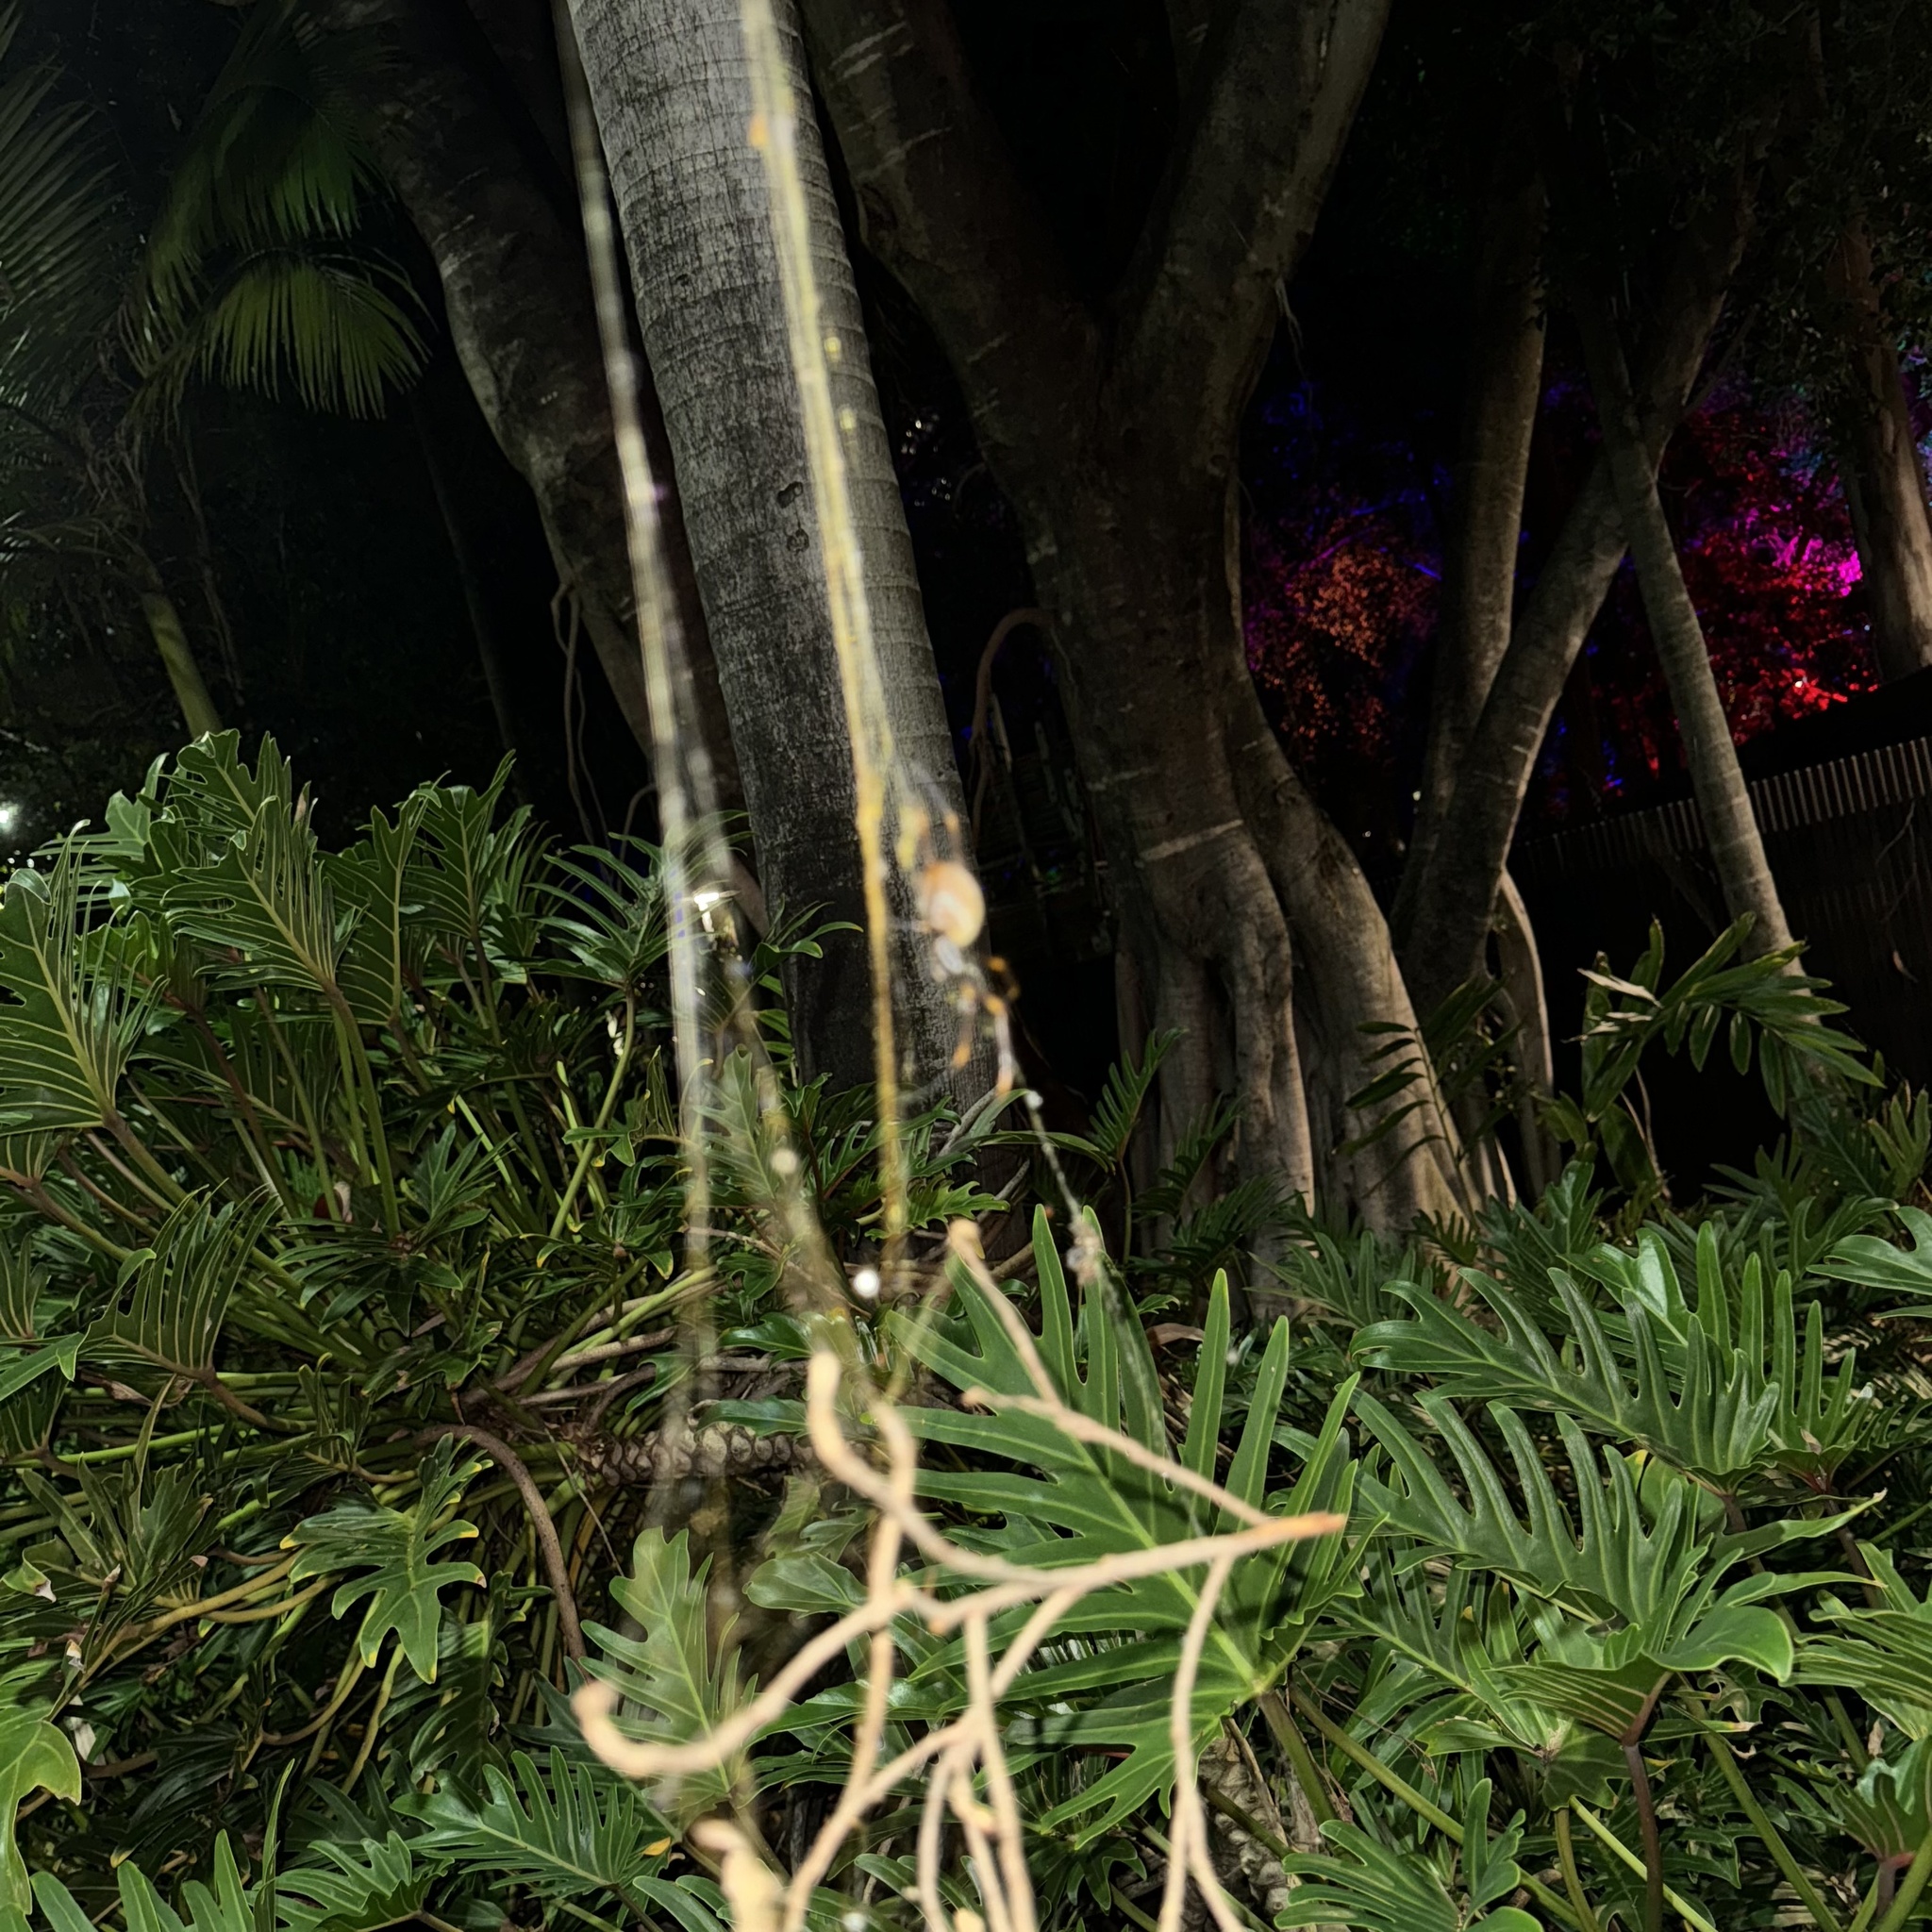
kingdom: Animalia
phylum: Arthropoda
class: Arachnida
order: Araneae
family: Araneidae
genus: Trichonephila
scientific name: Trichonephila plumipes
